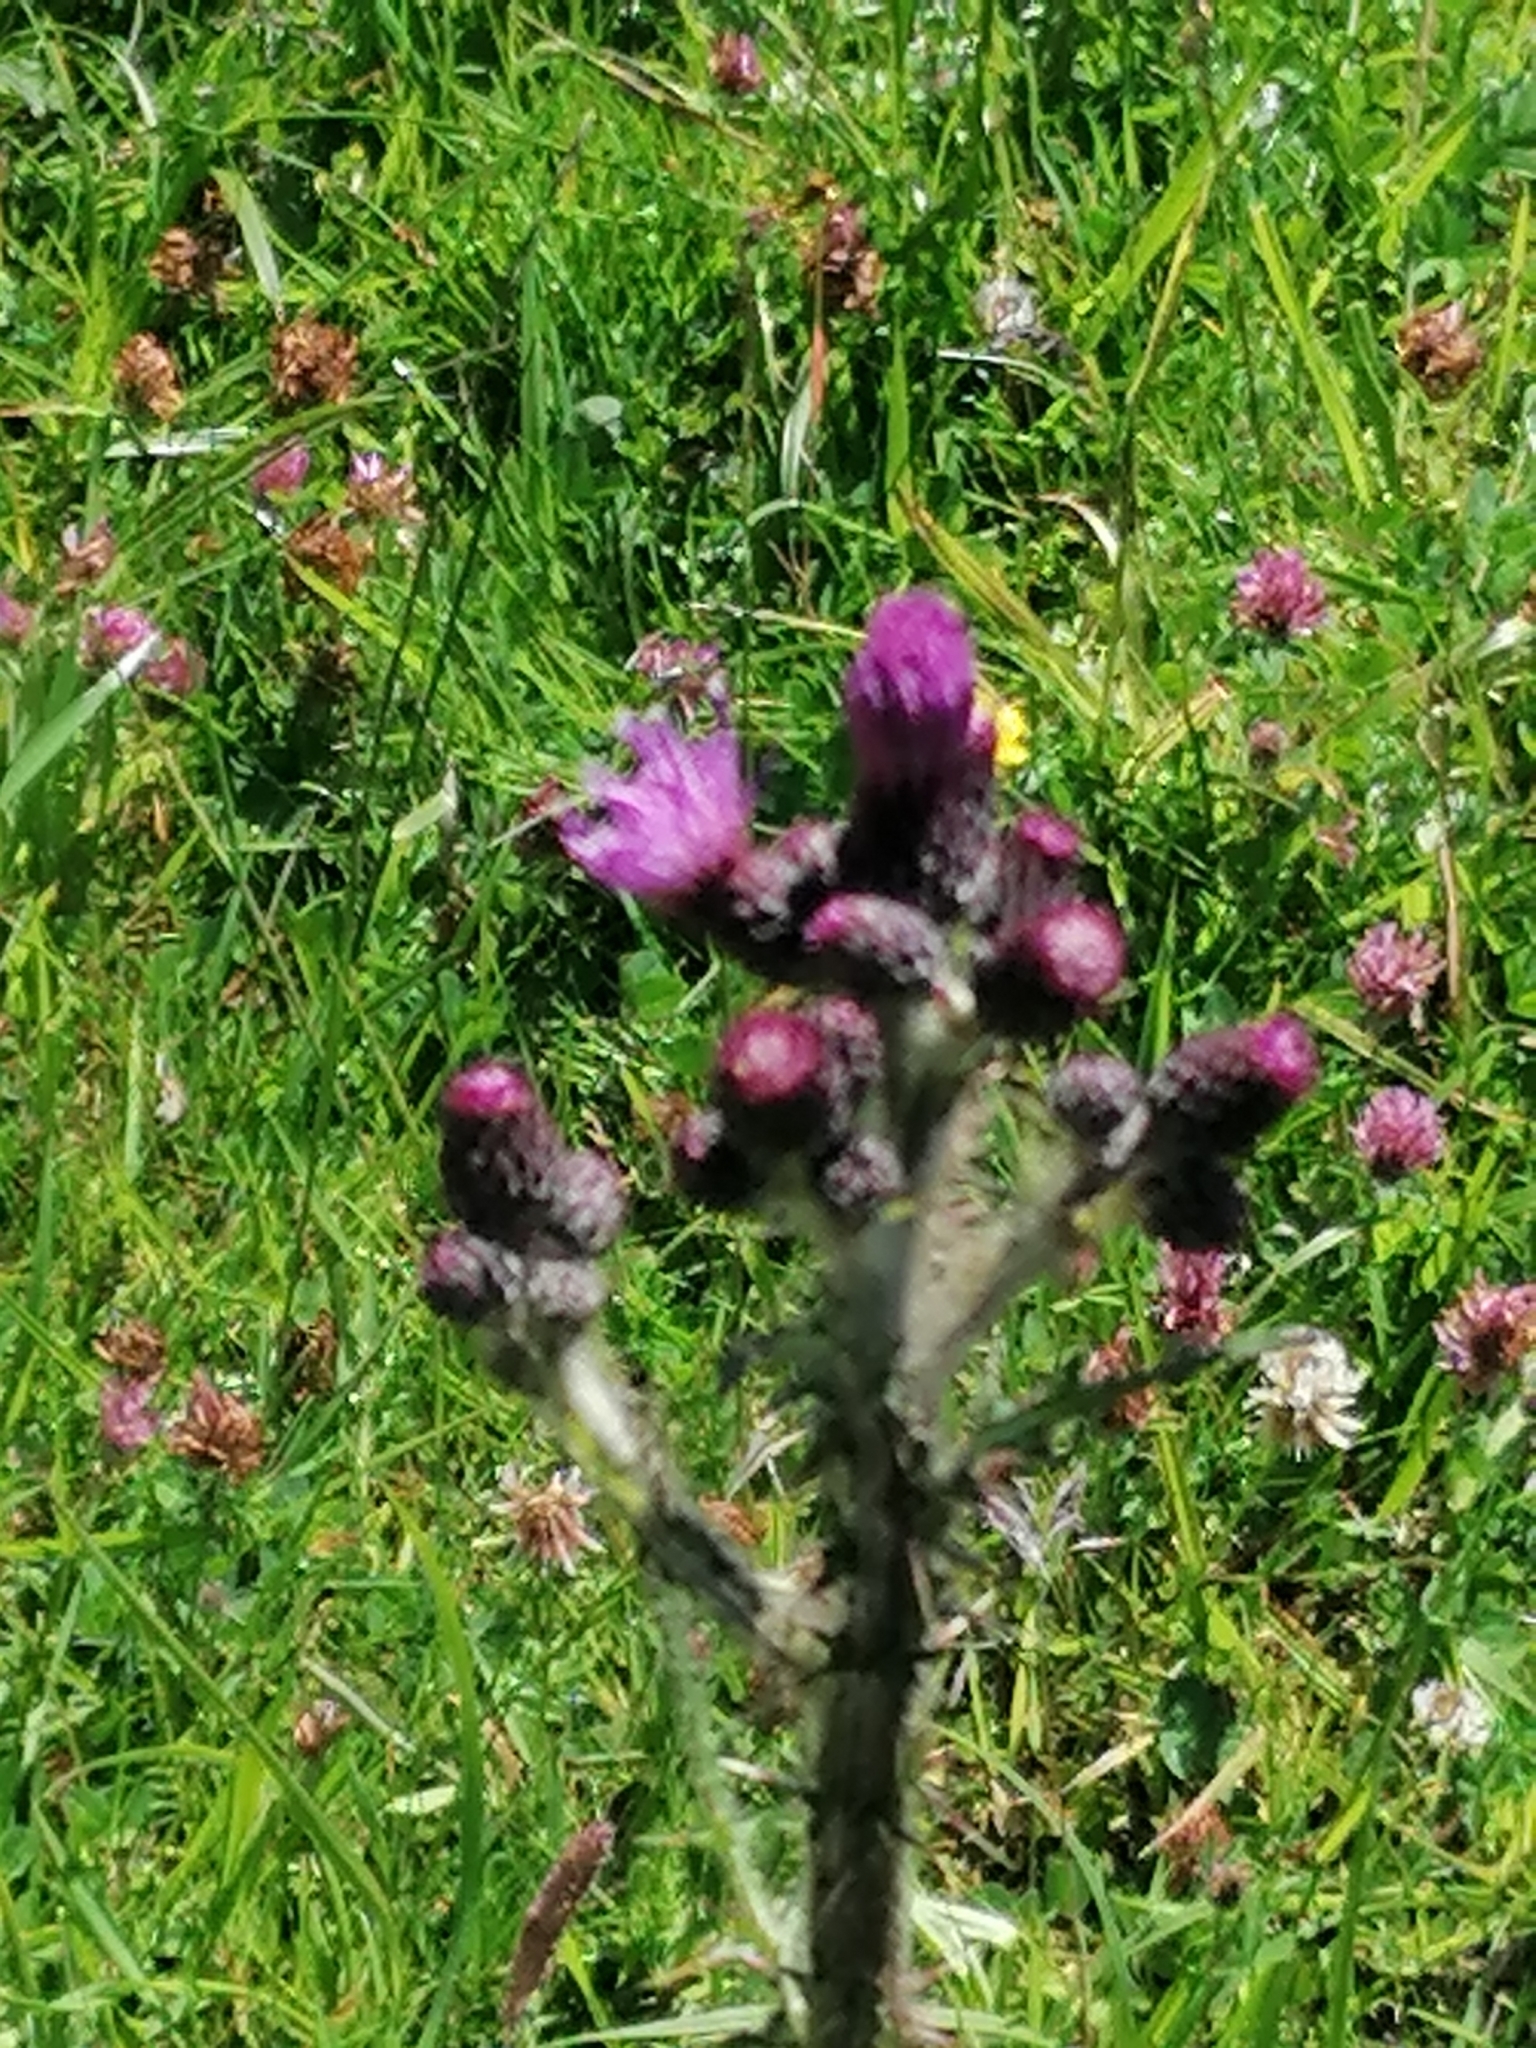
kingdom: Plantae
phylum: Tracheophyta
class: Magnoliopsida
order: Asterales
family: Asteraceae
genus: Cirsium
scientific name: Cirsium palustre
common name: Marsh thistle
